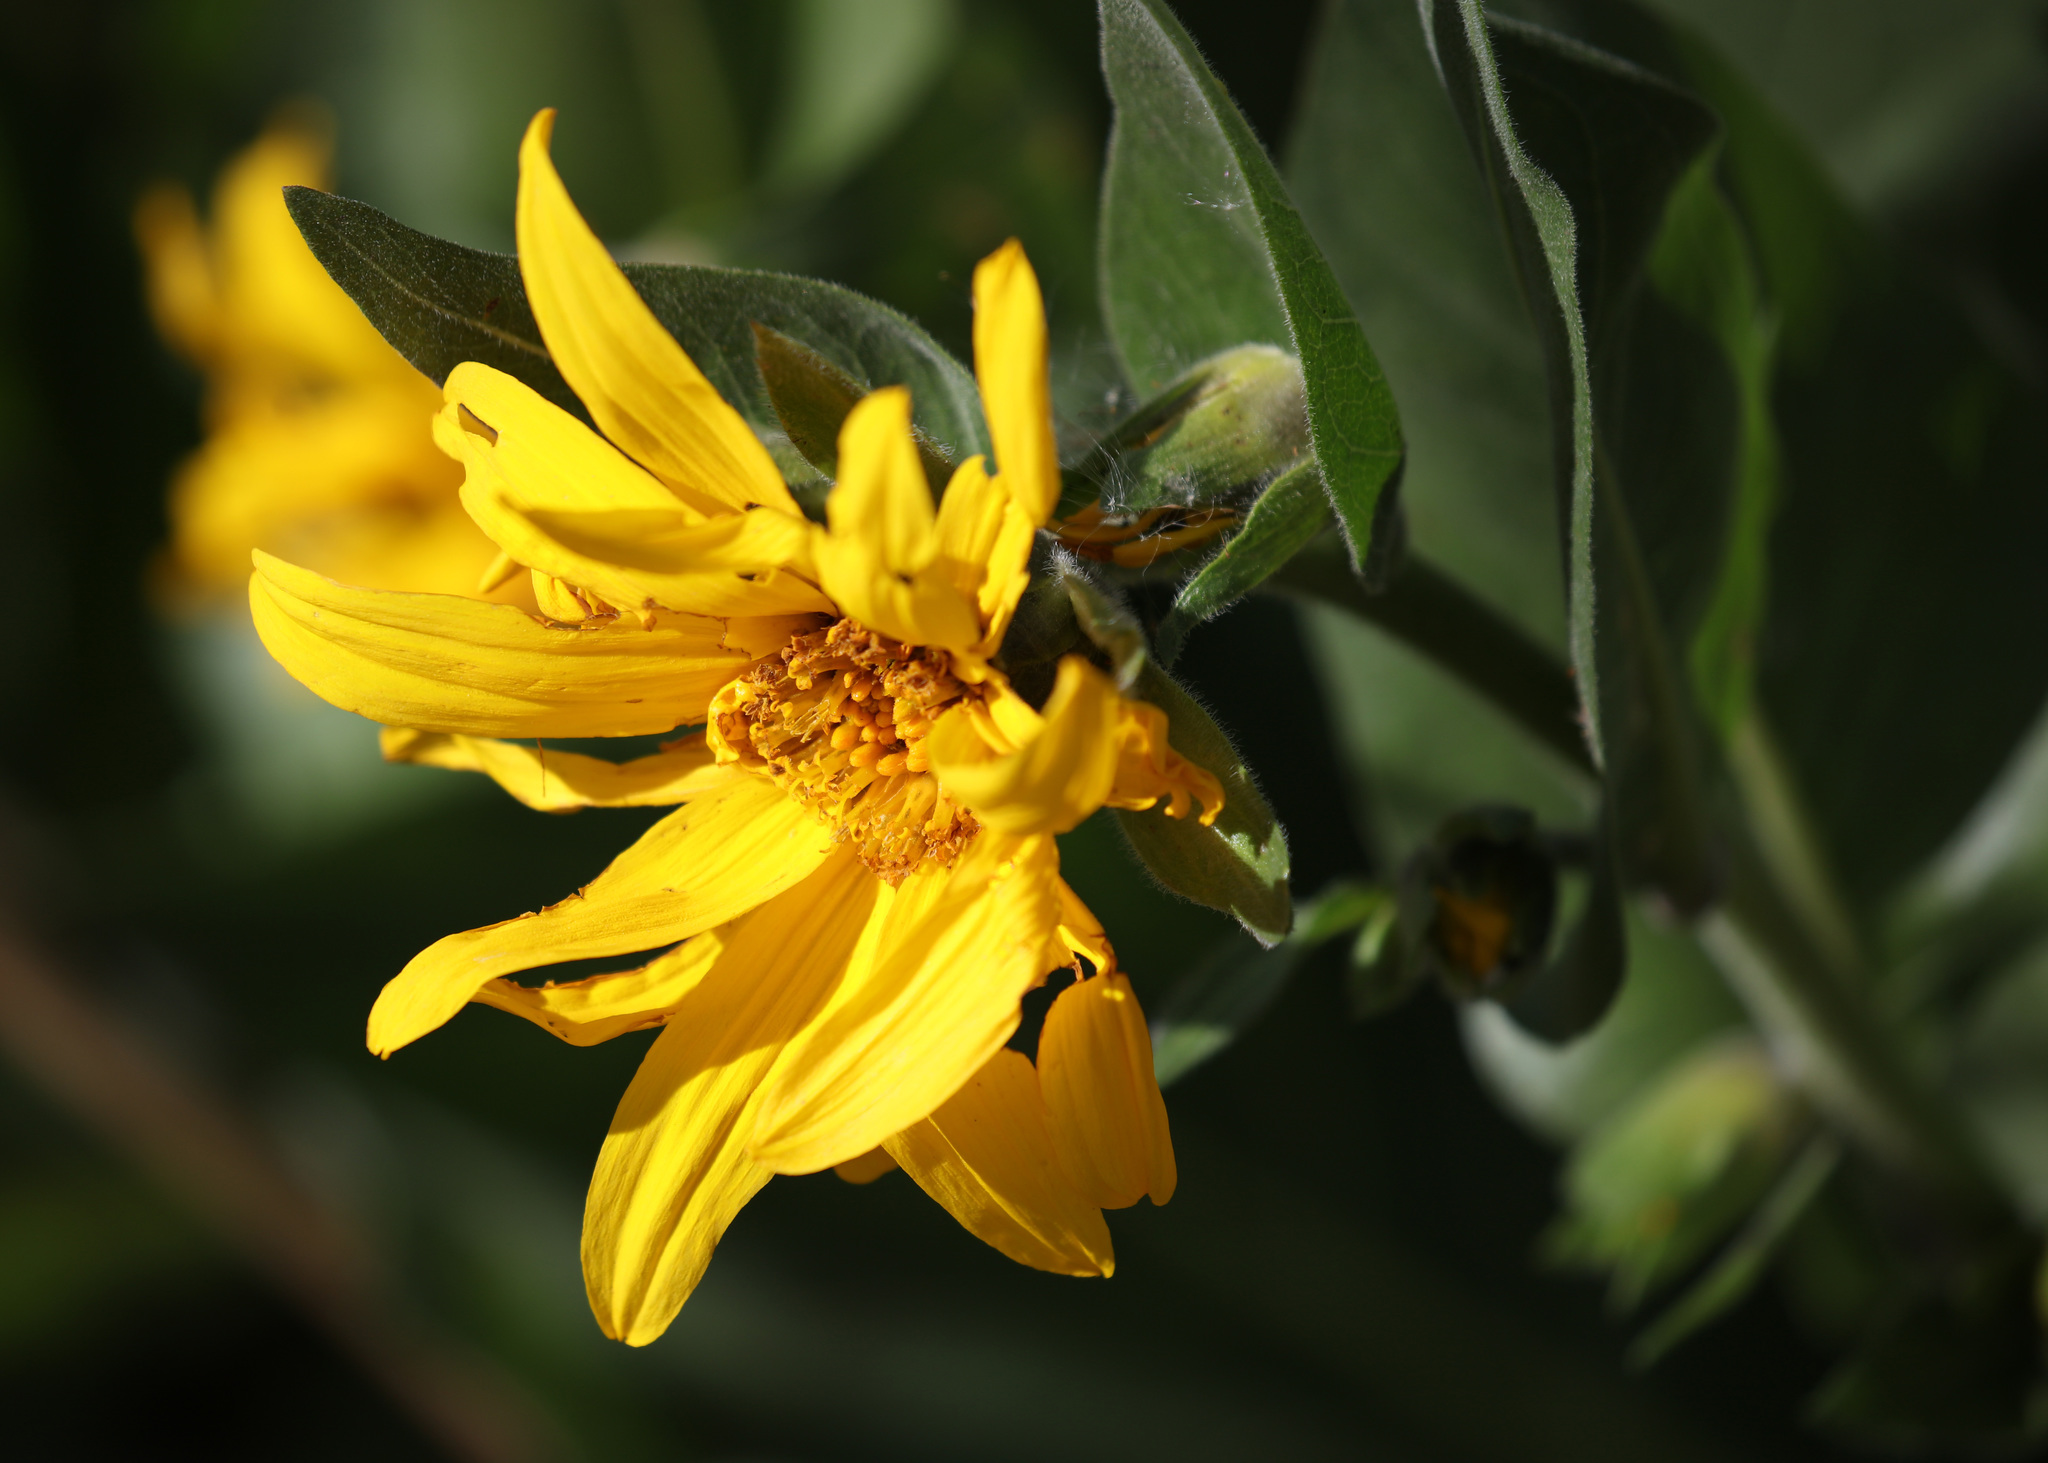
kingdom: Plantae
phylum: Tracheophyta
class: Magnoliopsida
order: Asterales
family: Asteraceae
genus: Wyethia
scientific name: Wyethia amplexicaulis
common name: Northern mule's-ears
